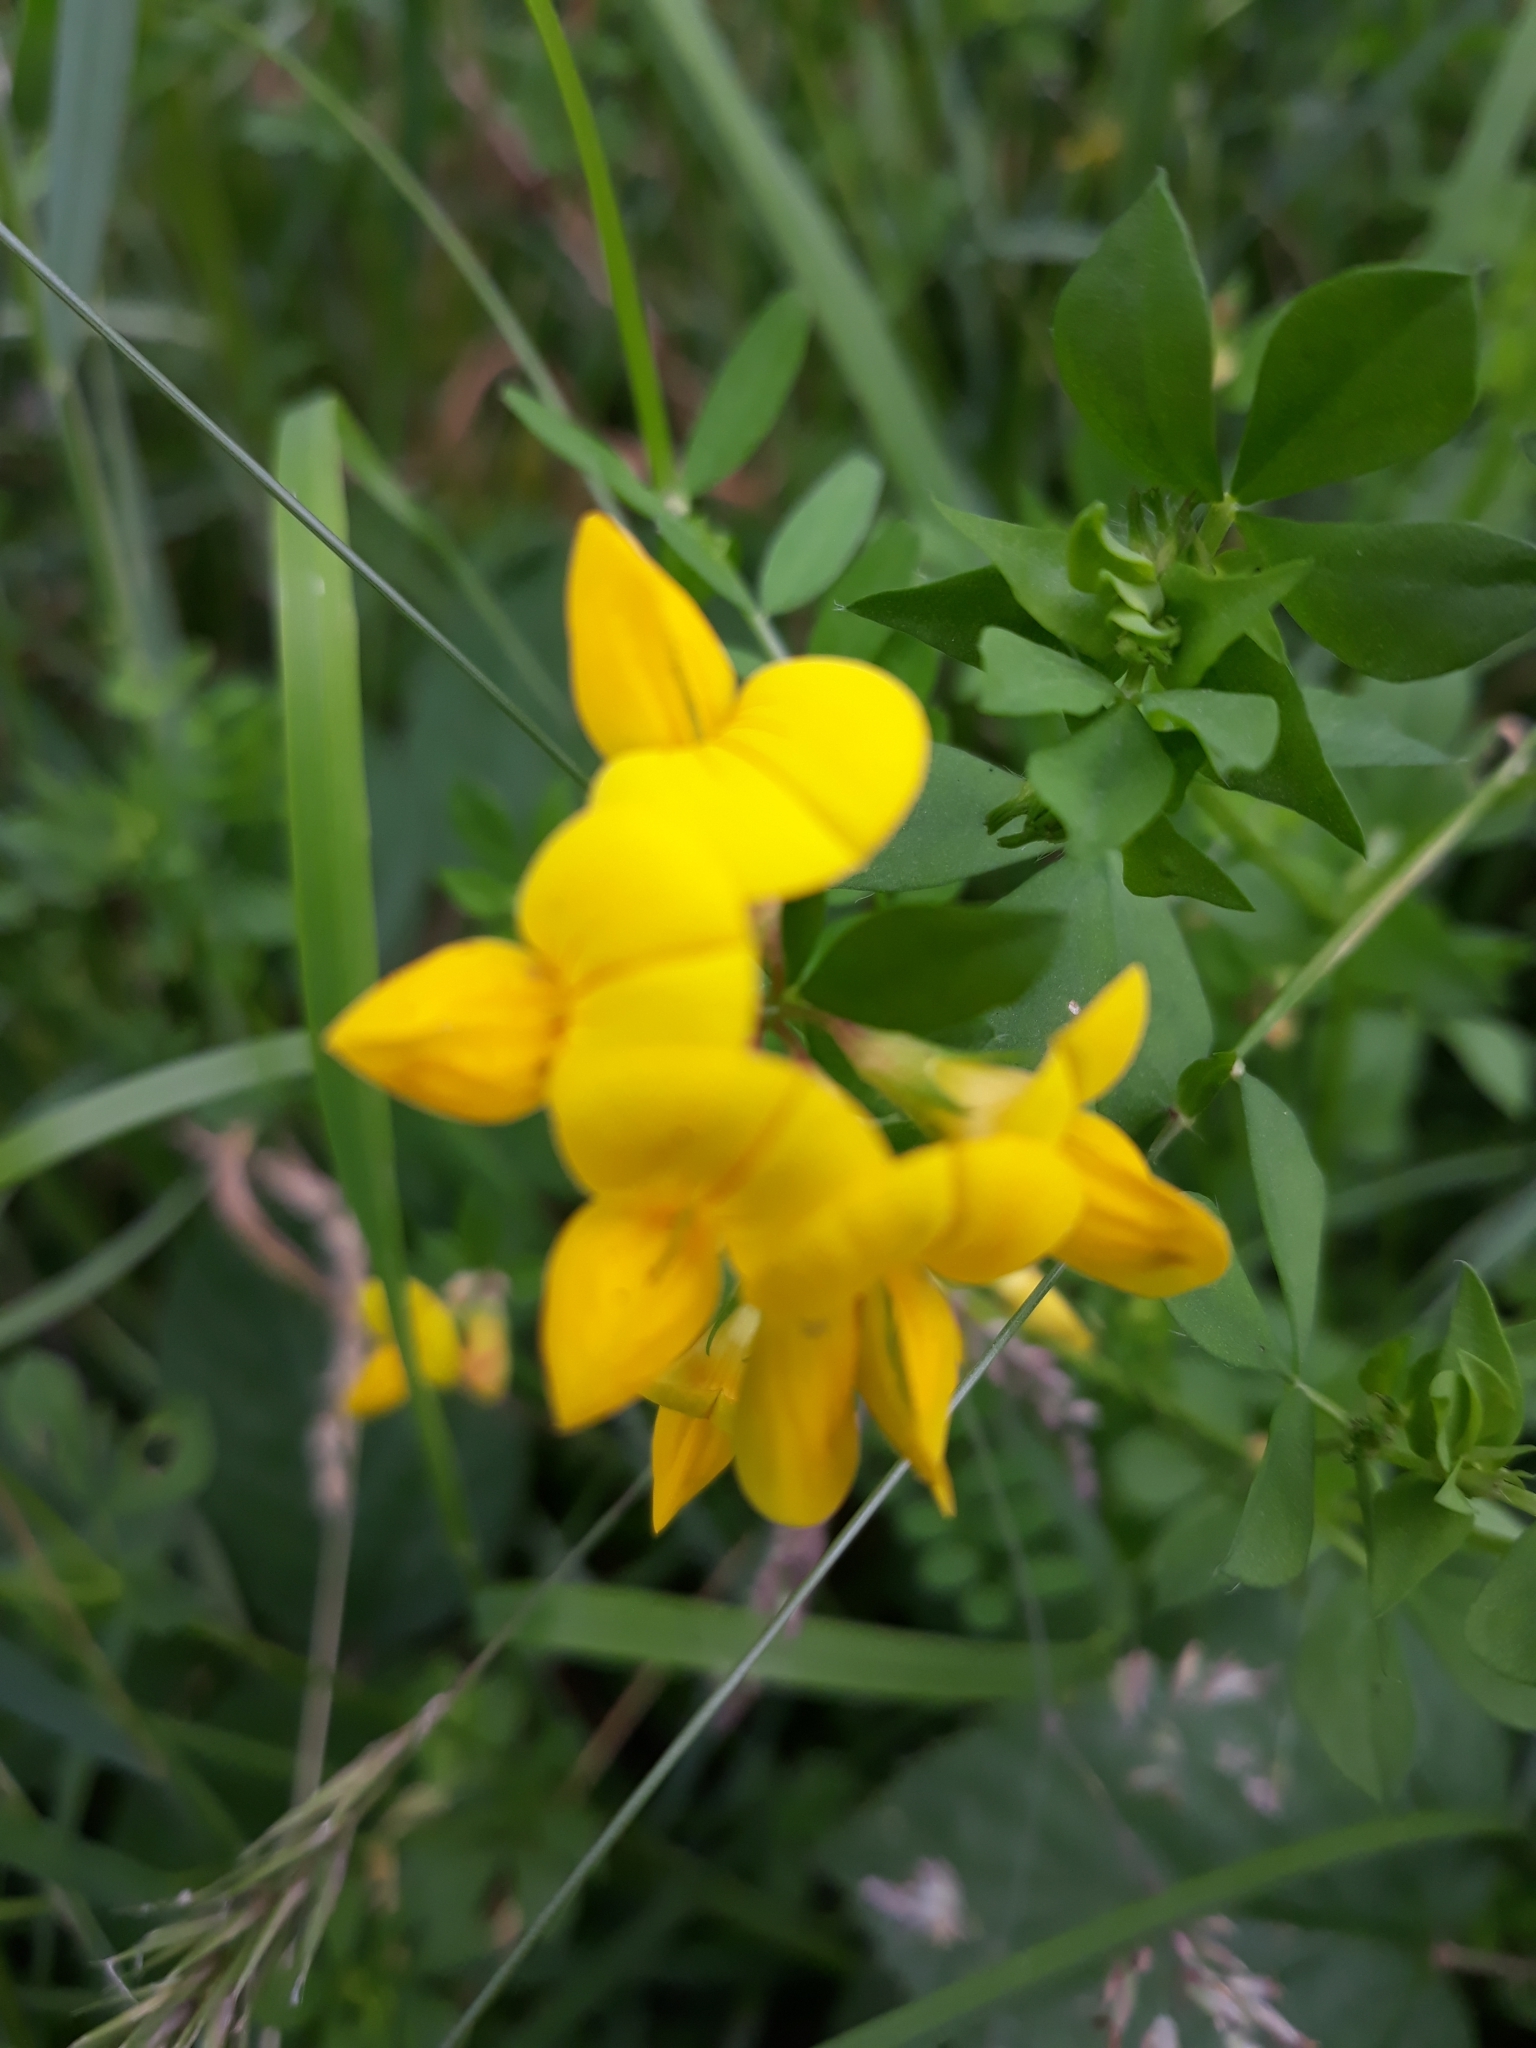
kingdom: Plantae
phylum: Tracheophyta
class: Magnoliopsida
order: Fabales
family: Fabaceae
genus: Lotus
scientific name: Lotus corniculatus
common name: Common bird's-foot-trefoil
